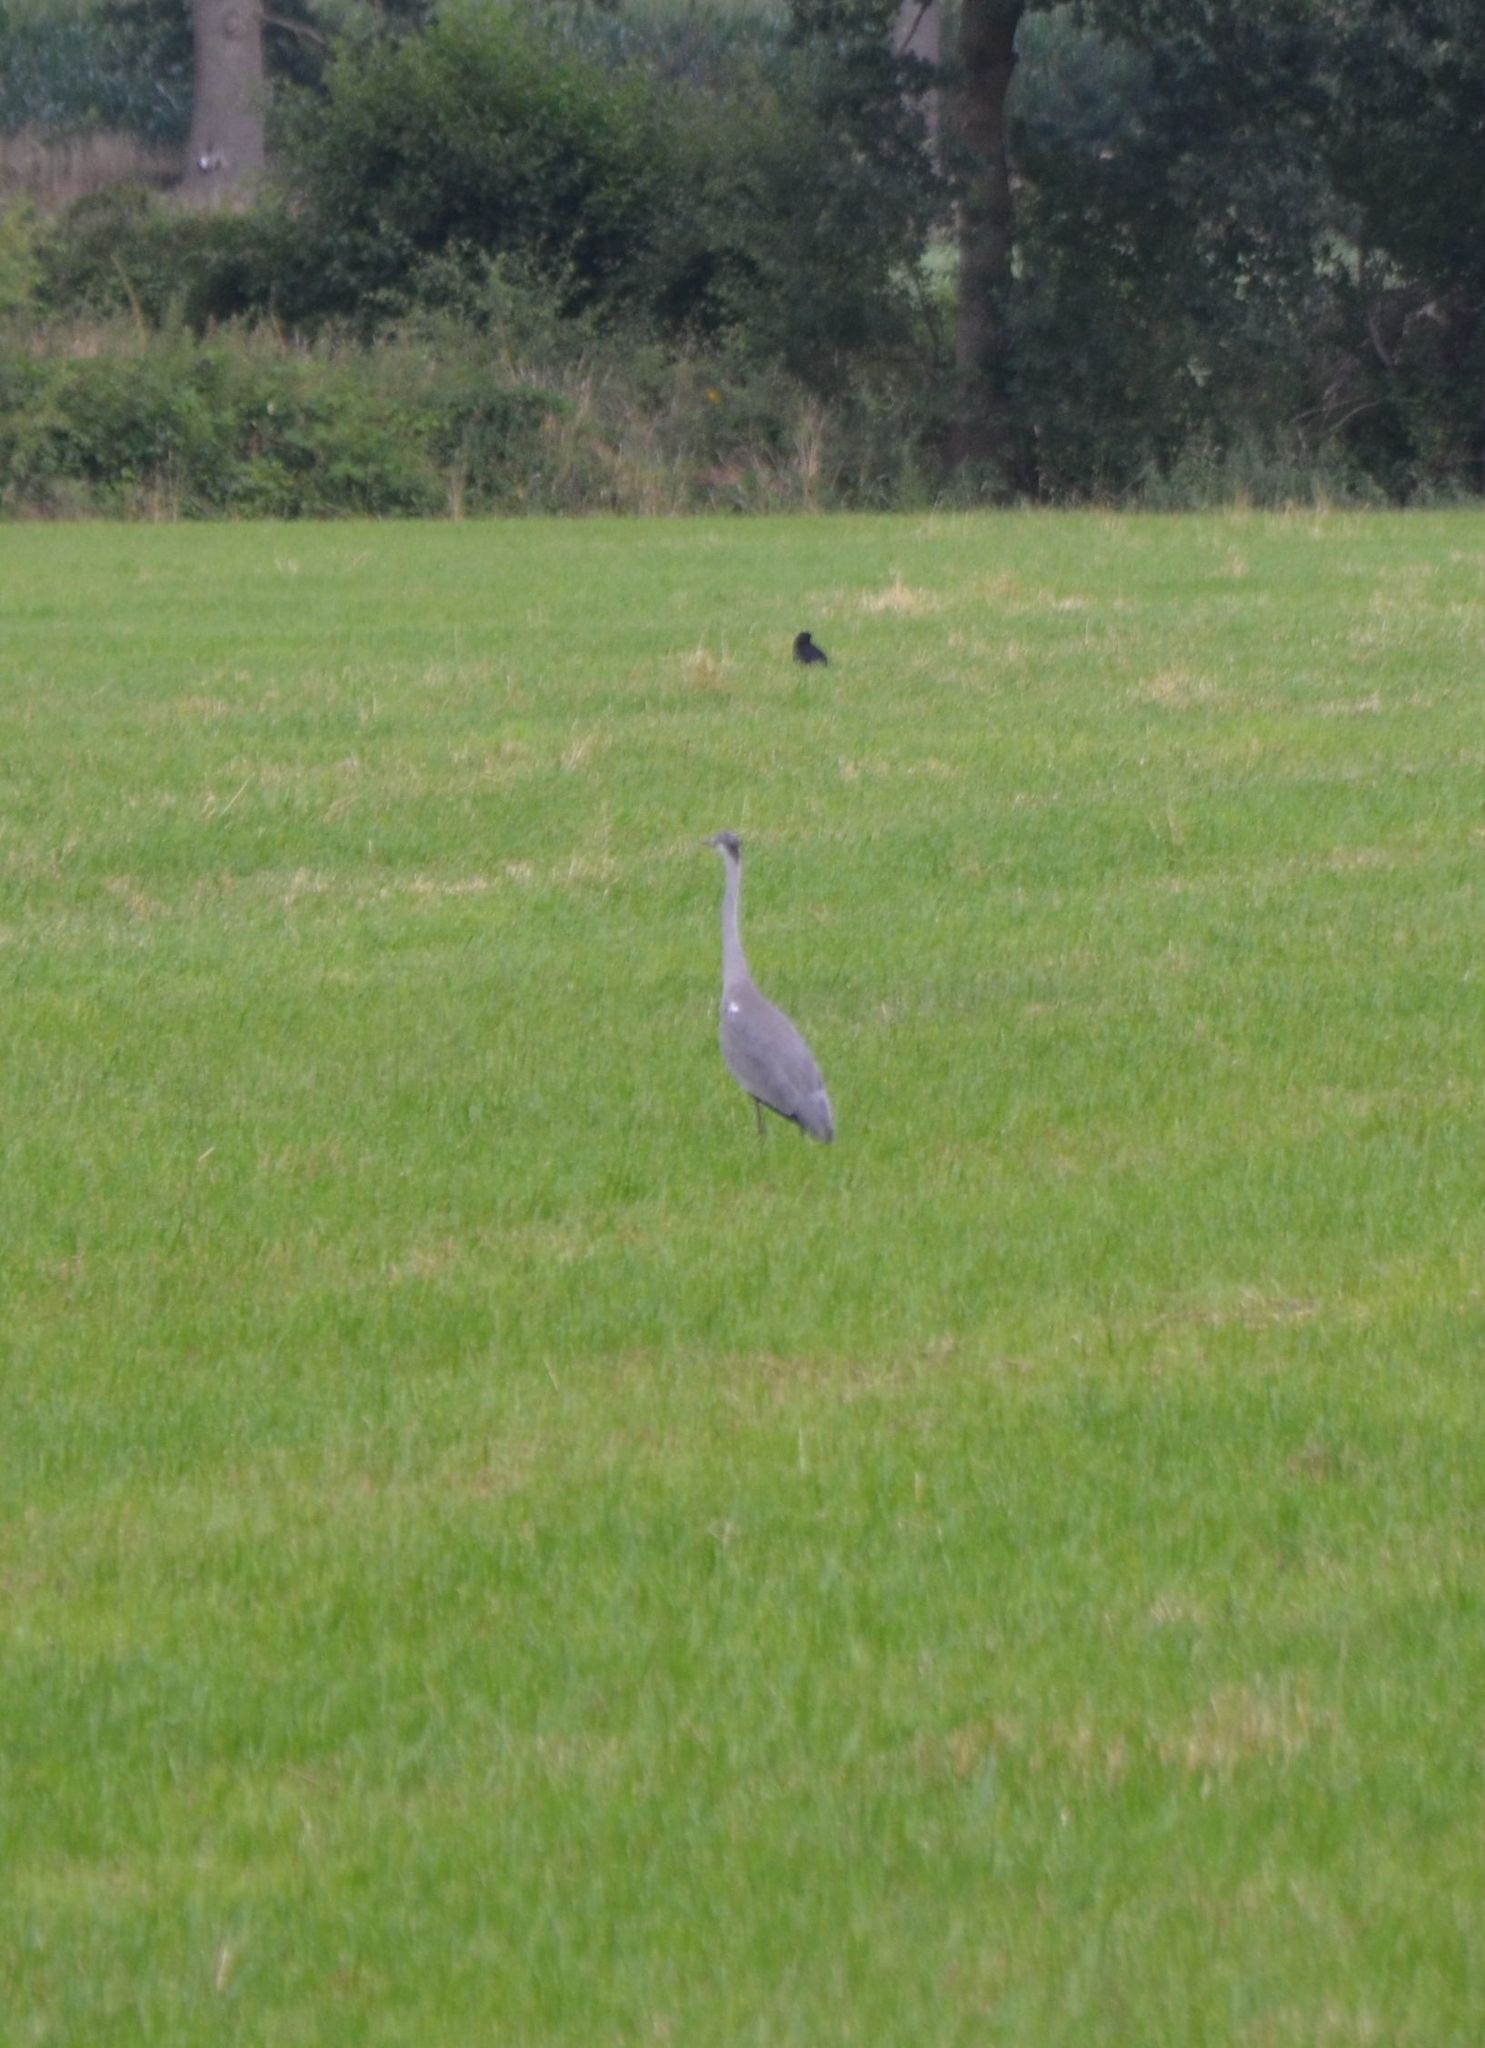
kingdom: Animalia
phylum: Chordata
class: Aves
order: Pelecaniformes
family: Ardeidae
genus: Ardea
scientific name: Ardea cinerea
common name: Grey heron
